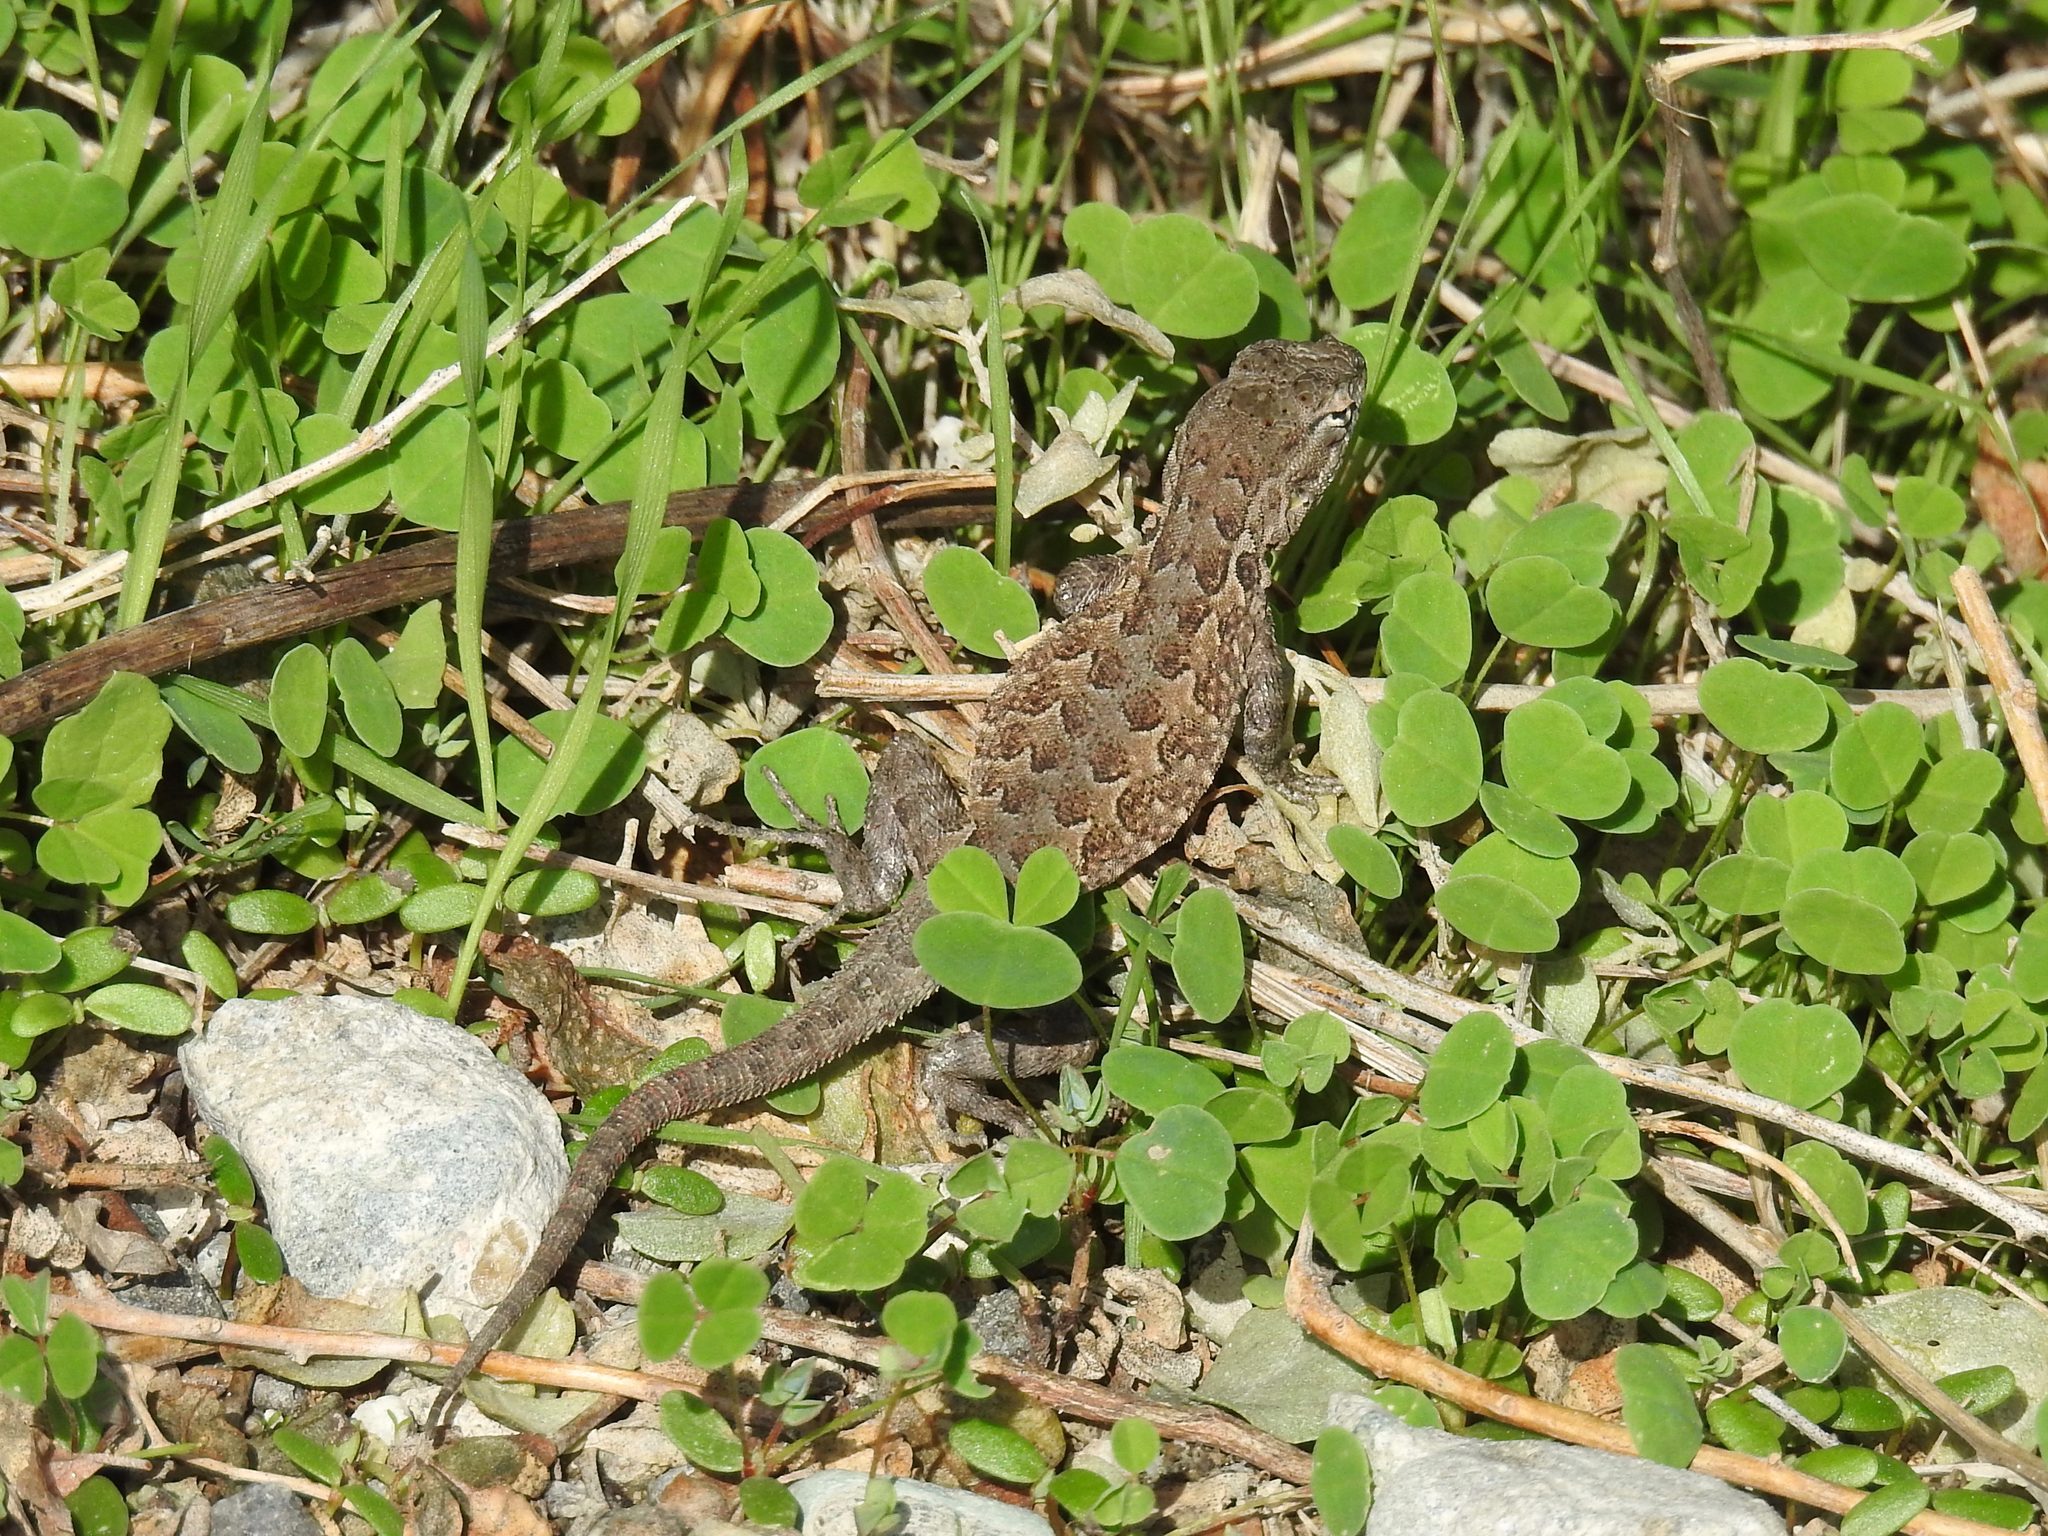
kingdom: Animalia
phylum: Chordata
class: Squamata
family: Phrynosomatidae
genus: Uta
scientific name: Uta stansburiana
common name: Side-blotched lizard
